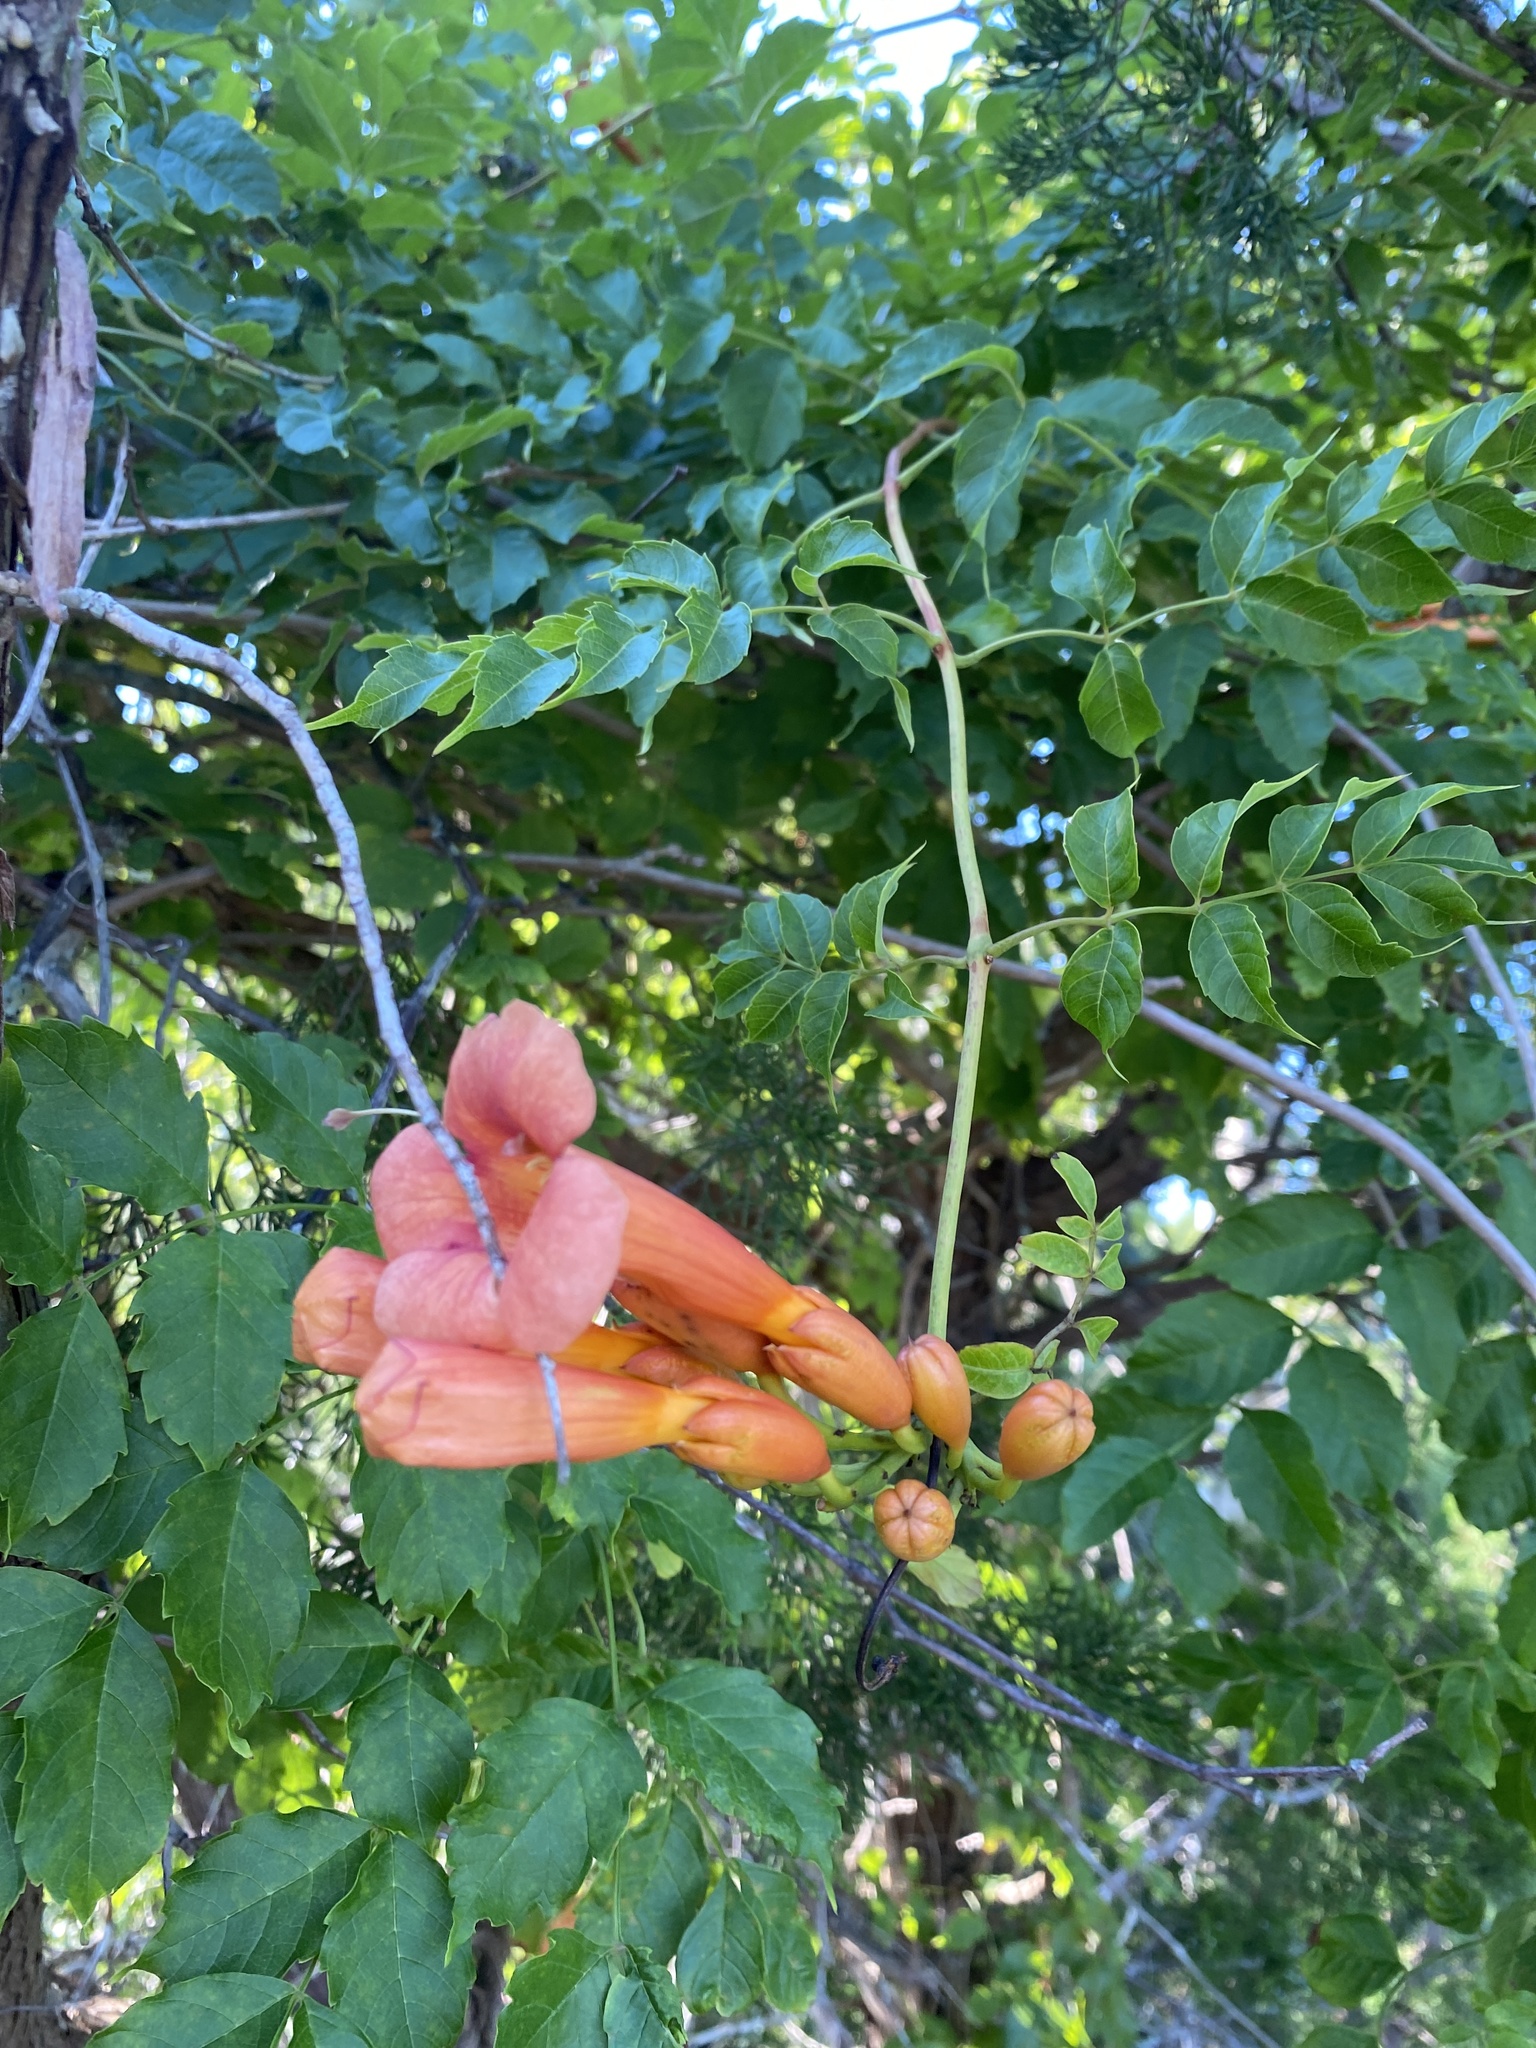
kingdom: Plantae
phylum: Tracheophyta
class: Magnoliopsida
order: Lamiales
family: Bignoniaceae
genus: Campsis
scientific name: Campsis radicans
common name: Trumpet-creeper
